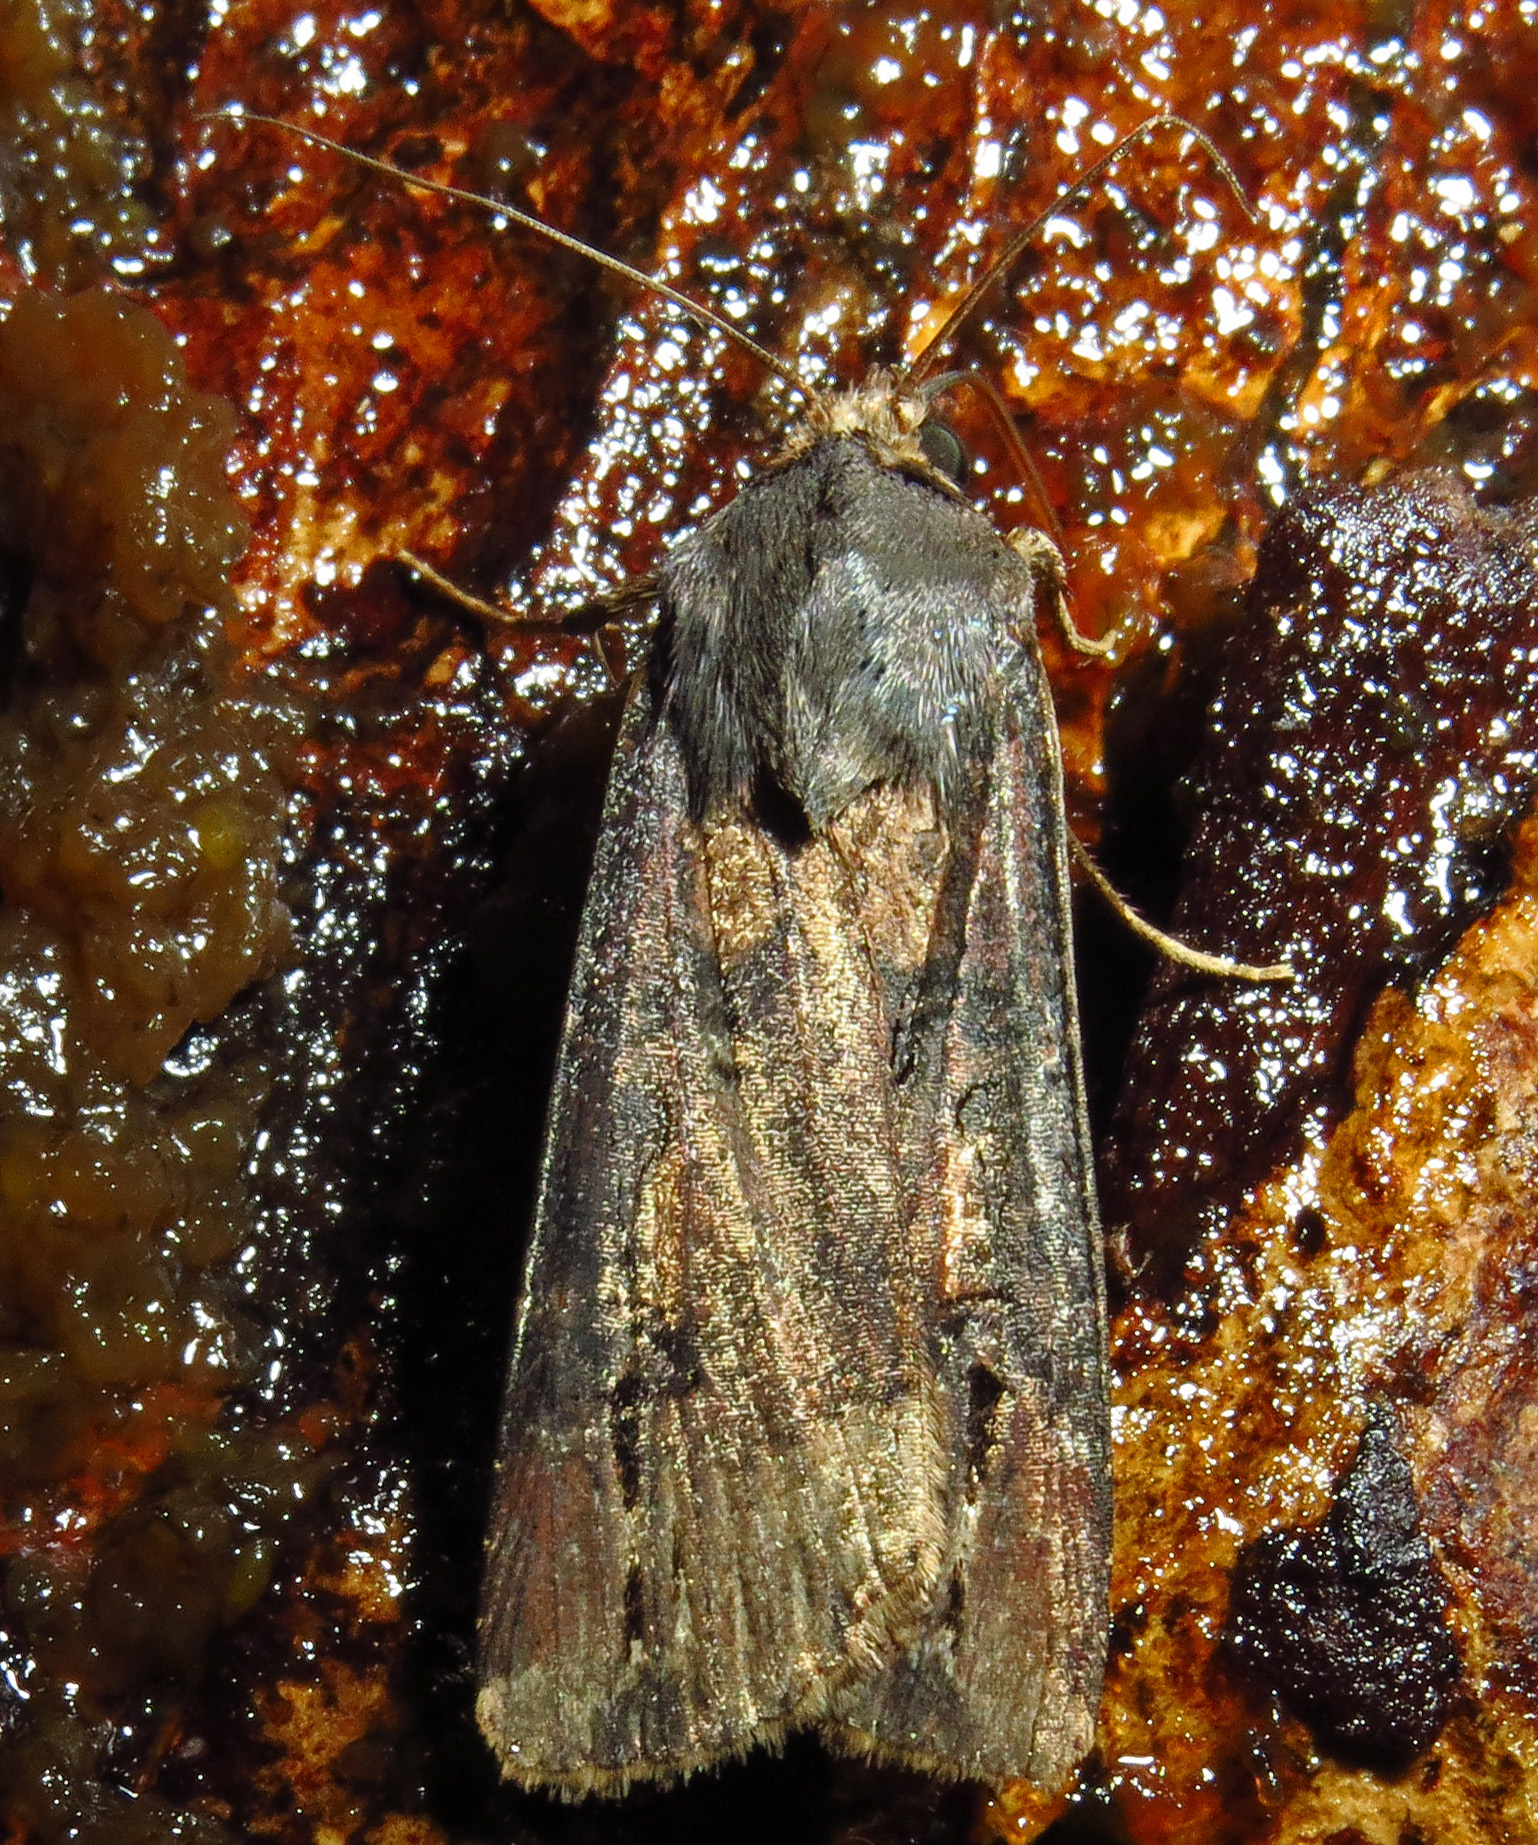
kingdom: Animalia
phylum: Arthropoda
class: Insecta
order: Lepidoptera
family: Noctuidae
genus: Agrotis
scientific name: Agrotis ipsilon
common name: Dark sword-grass
